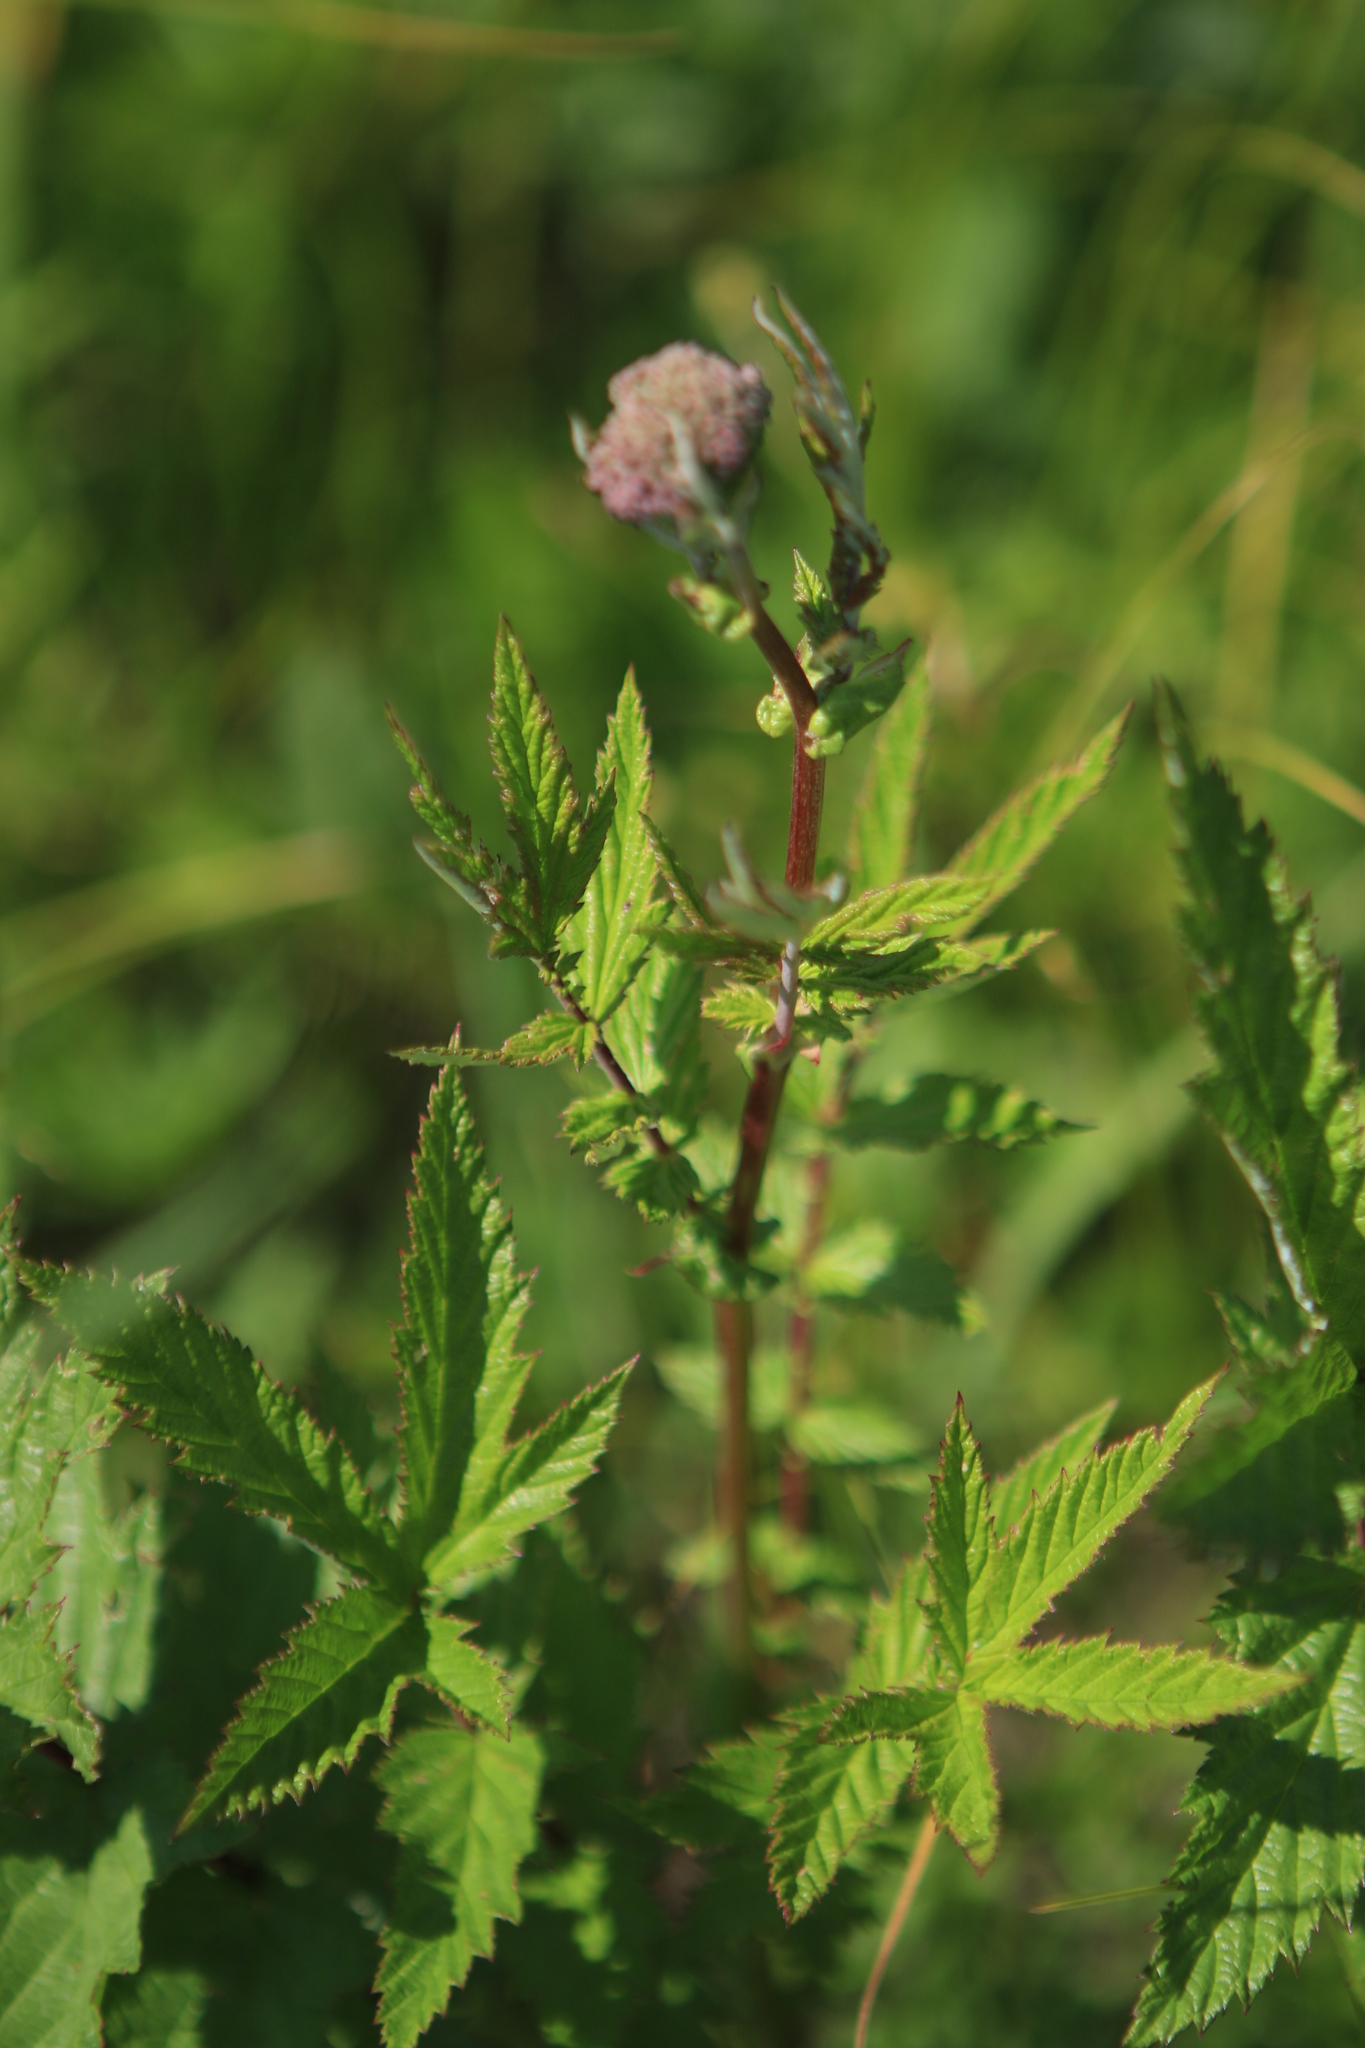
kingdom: Plantae
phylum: Tracheophyta
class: Magnoliopsida
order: Rosales
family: Rosaceae
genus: Filipendula
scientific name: Filipendula ulmaria
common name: Meadowsweet
